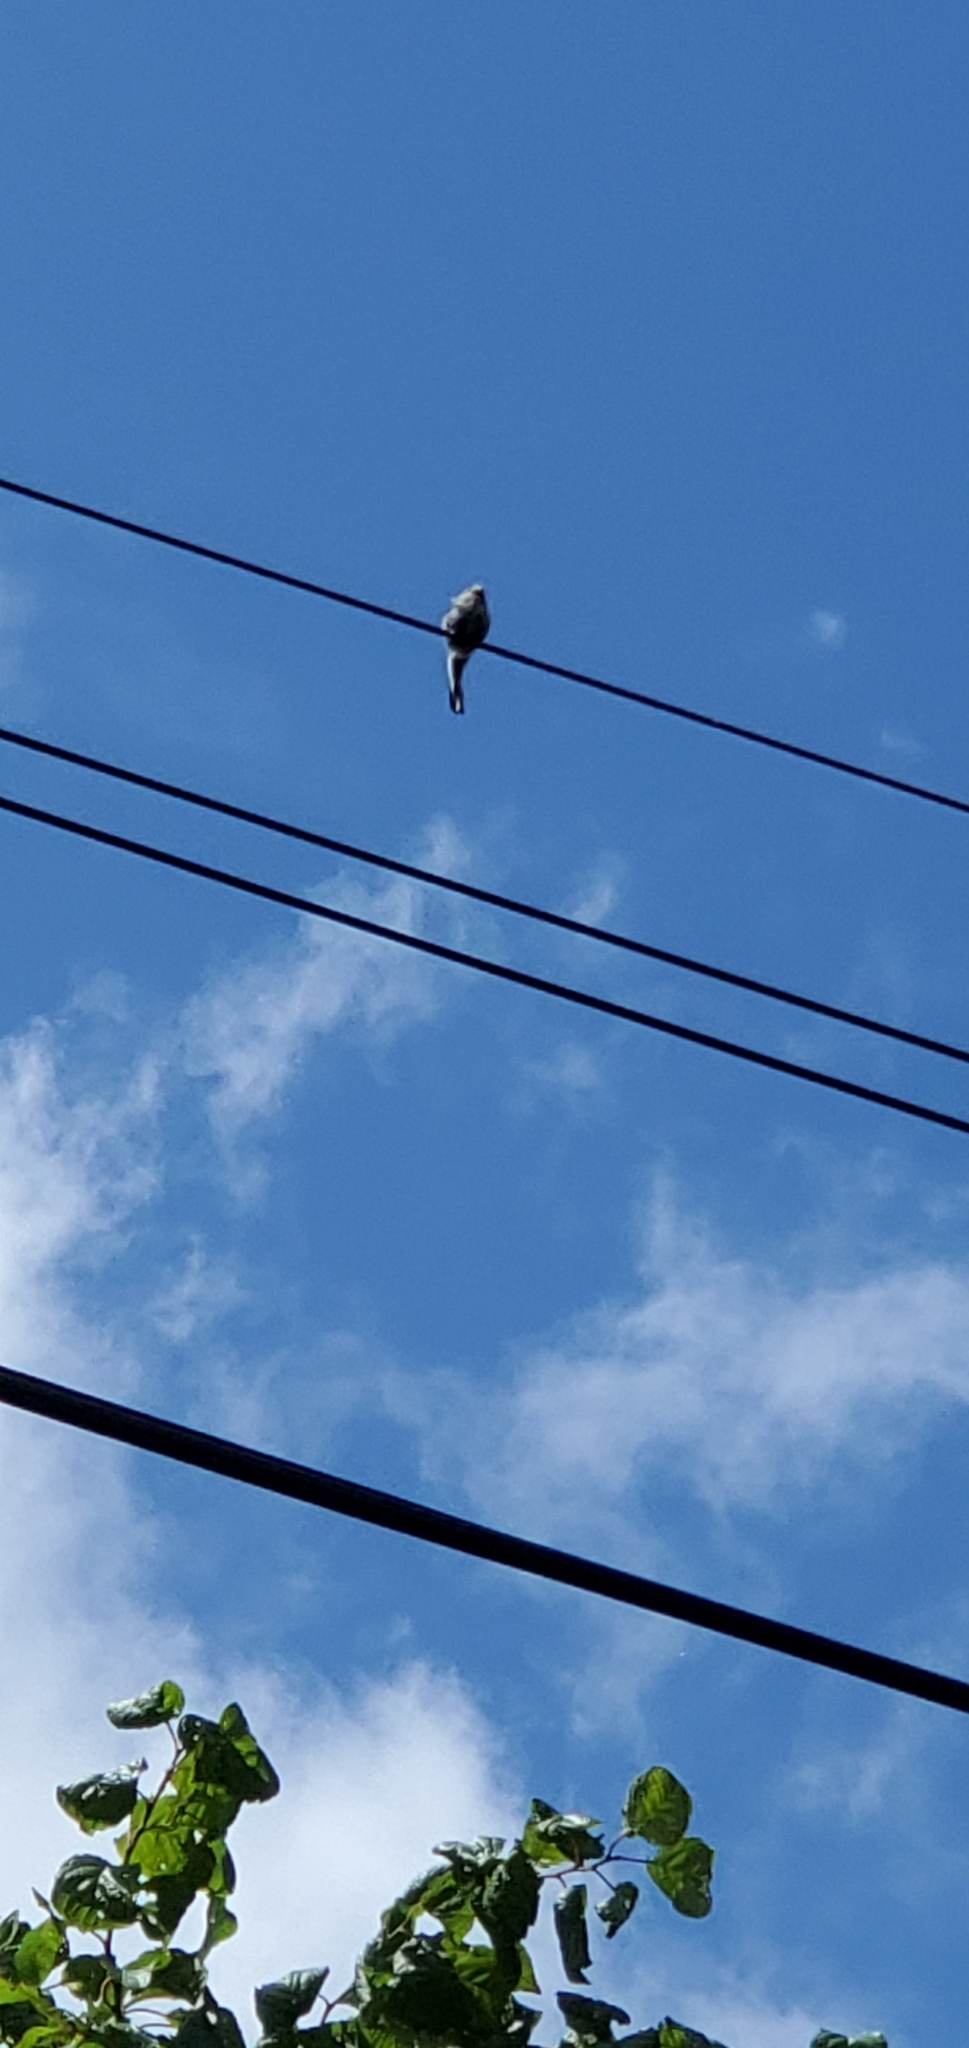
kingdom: Animalia
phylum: Chordata
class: Aves
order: Passeriformes
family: Aegithalidae
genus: Aegithalos
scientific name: Aegithalos caudatus
